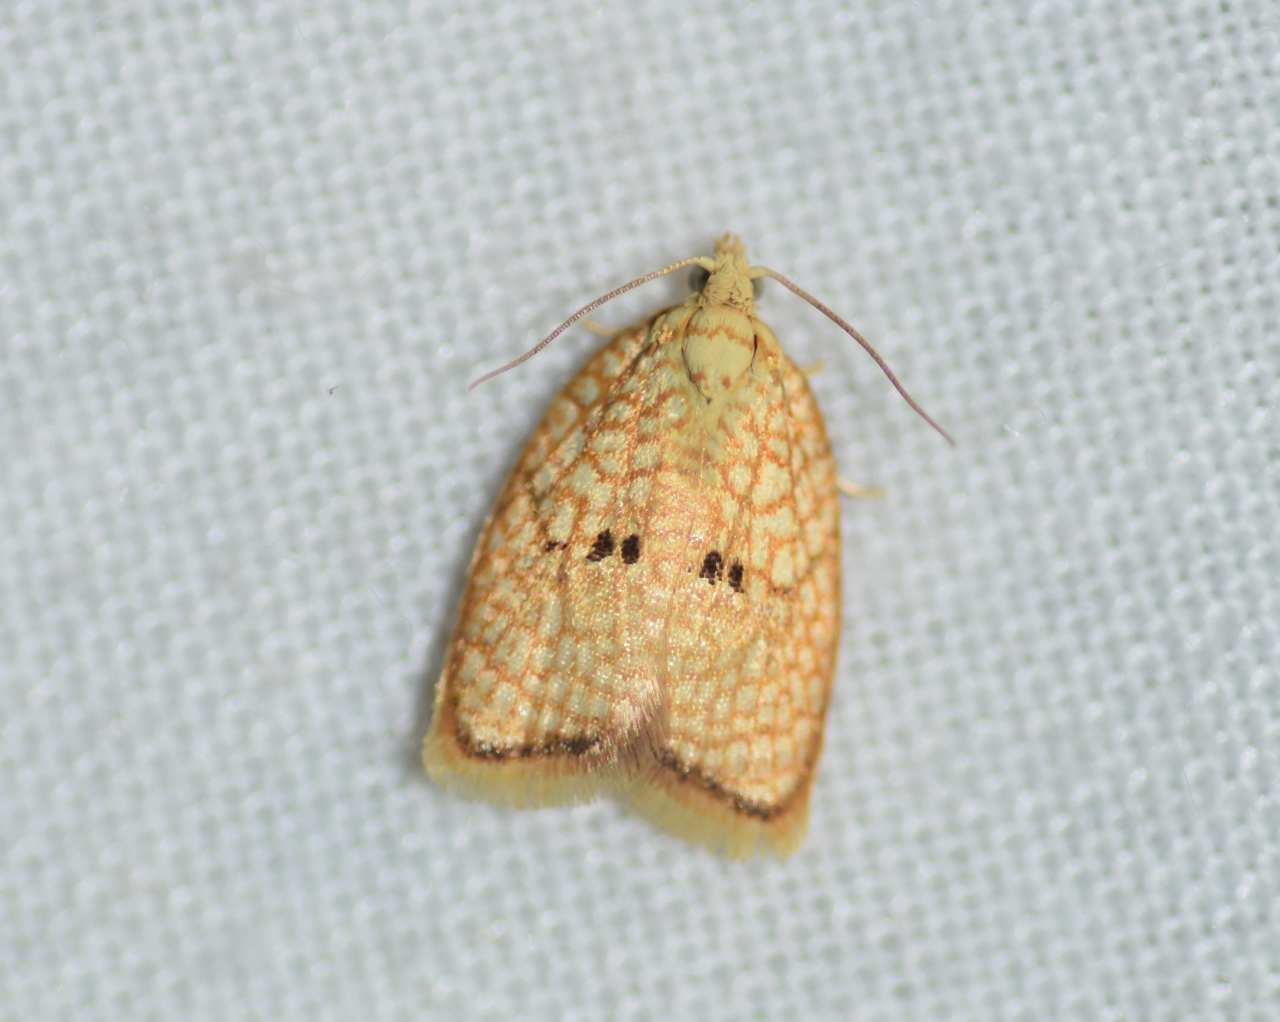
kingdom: Animalia
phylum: Arthropoda
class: Insecta
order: Lepidoptera
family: Tortricidae
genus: Acleris
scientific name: Acleris forsskaleana
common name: Maple button
